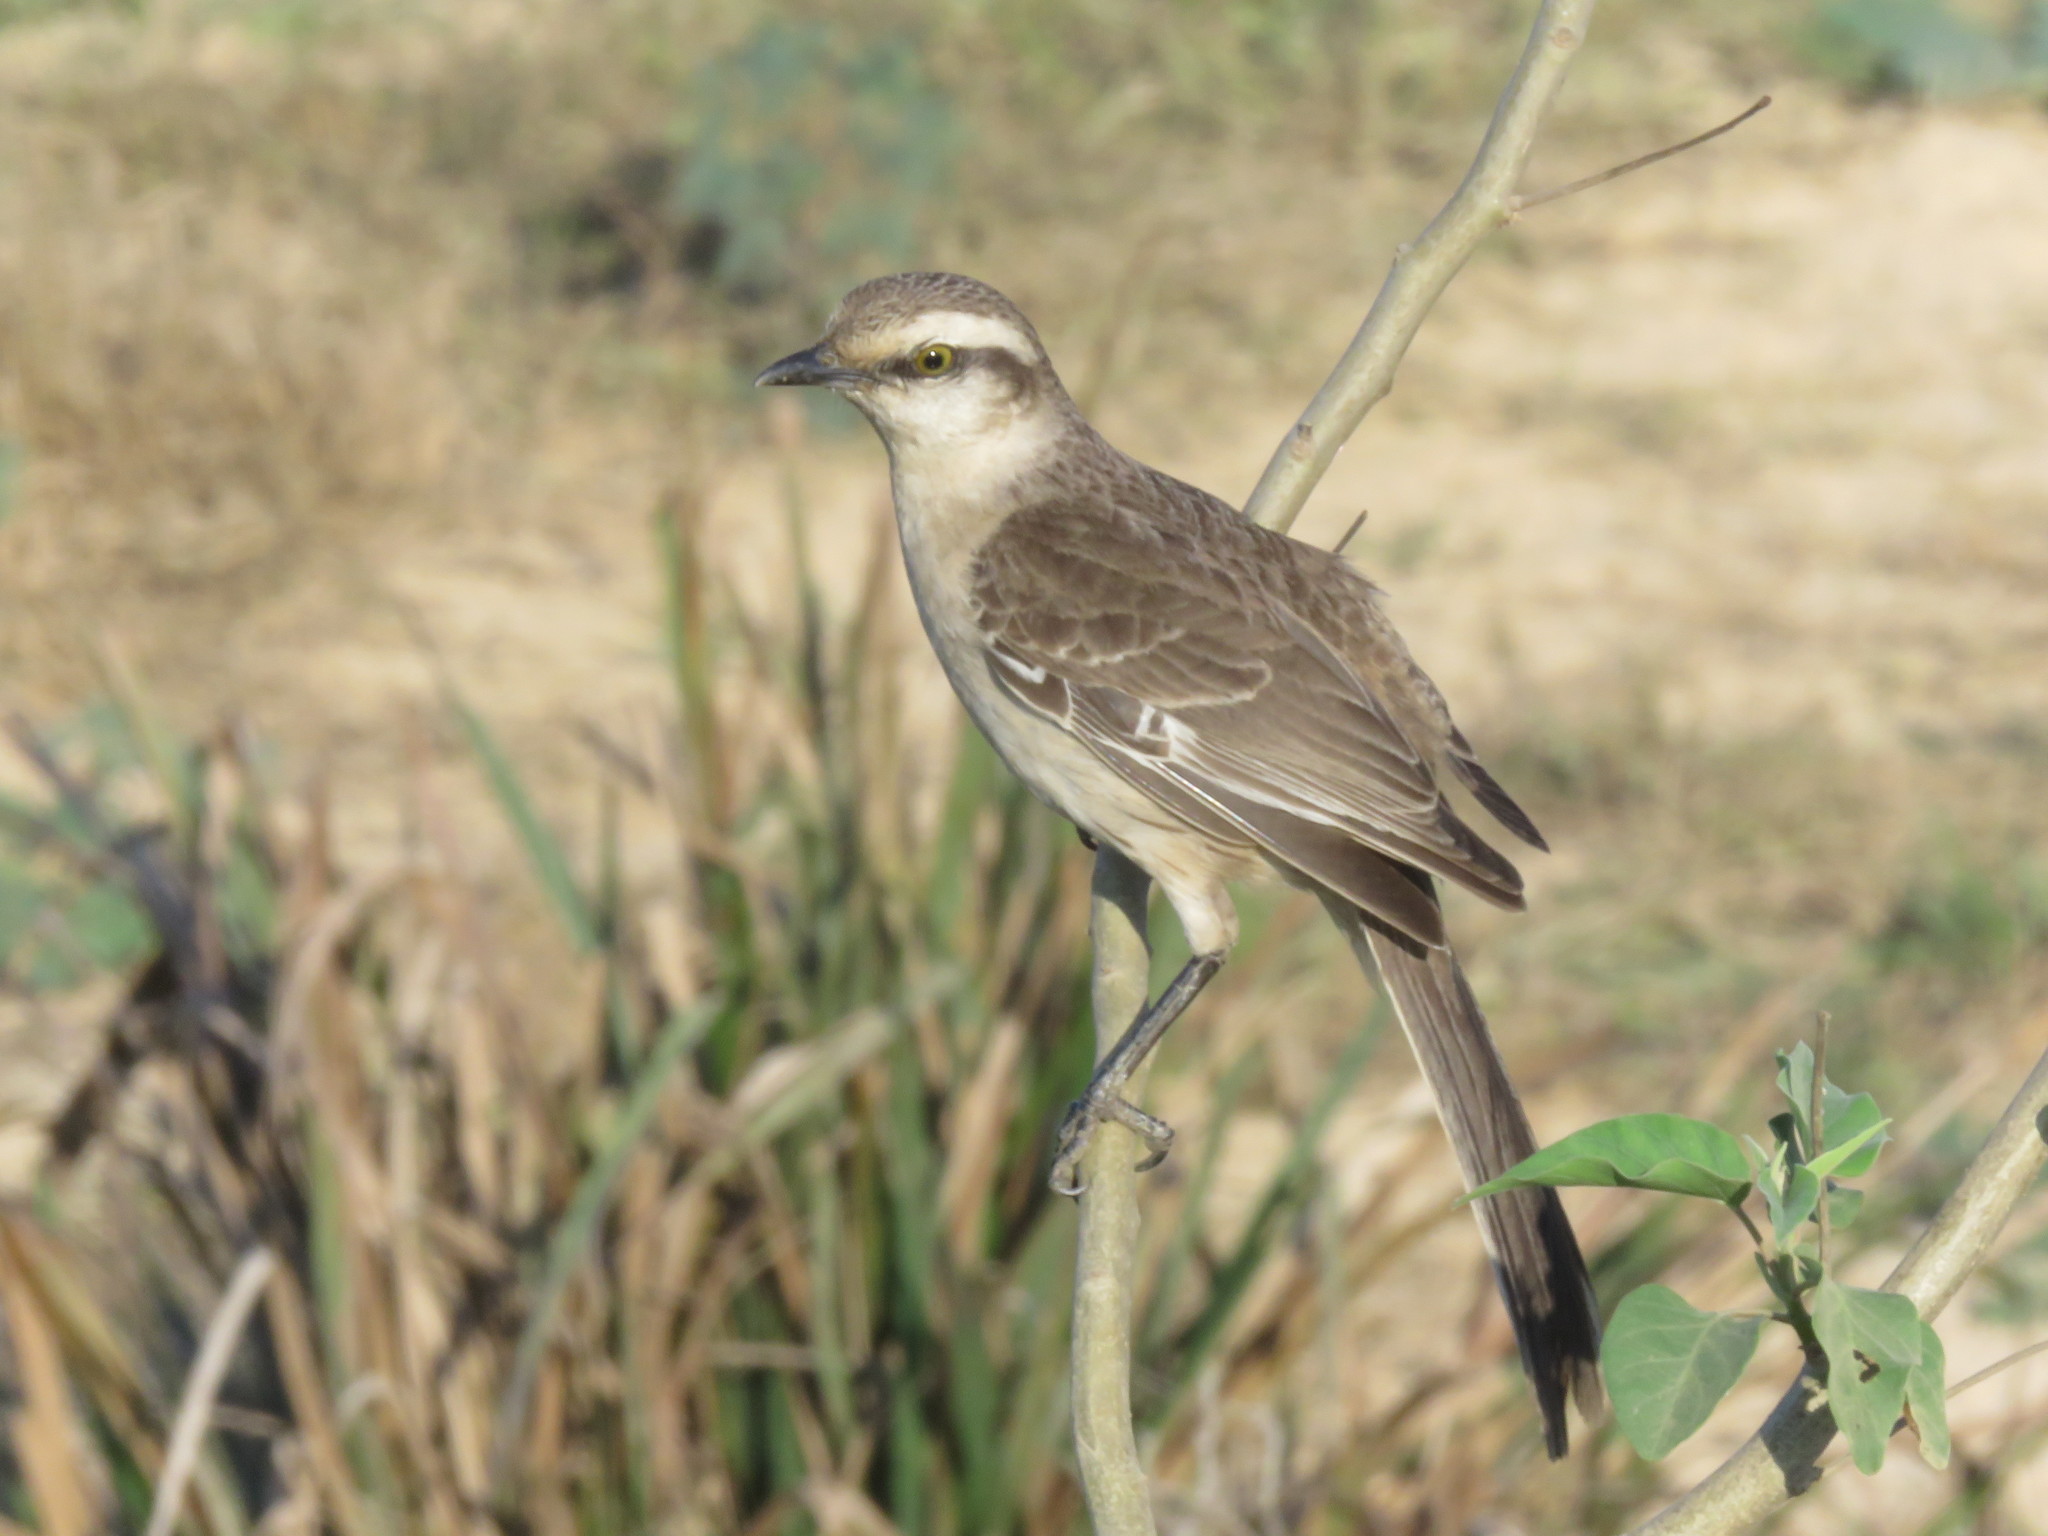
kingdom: Animalia
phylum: Chordata
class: Aves
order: Passeriformes
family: Mimidae
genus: Mimus
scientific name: Mimus saturninus
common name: Chalk-browed mockingbird
